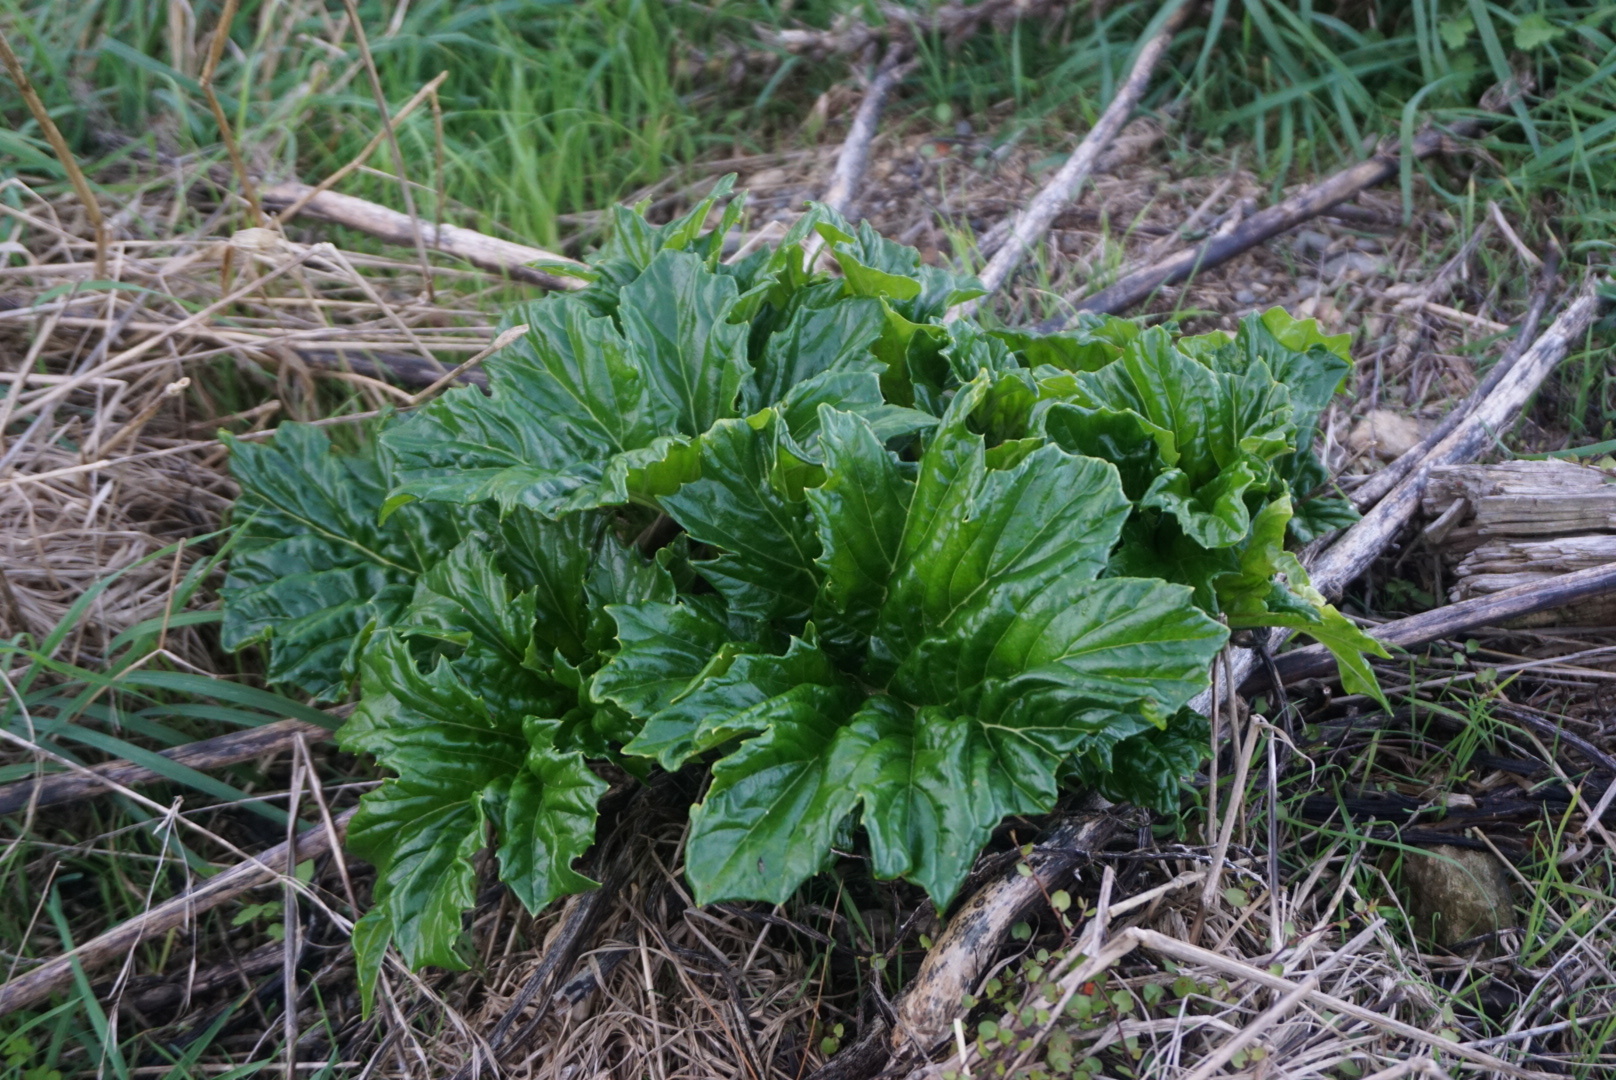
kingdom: Plantae
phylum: Tracheophyta
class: Magnoliopsida
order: Lamiales
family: Acanthaceae
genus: Acanthus
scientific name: Acanthus mollis
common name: Bear's-breech
